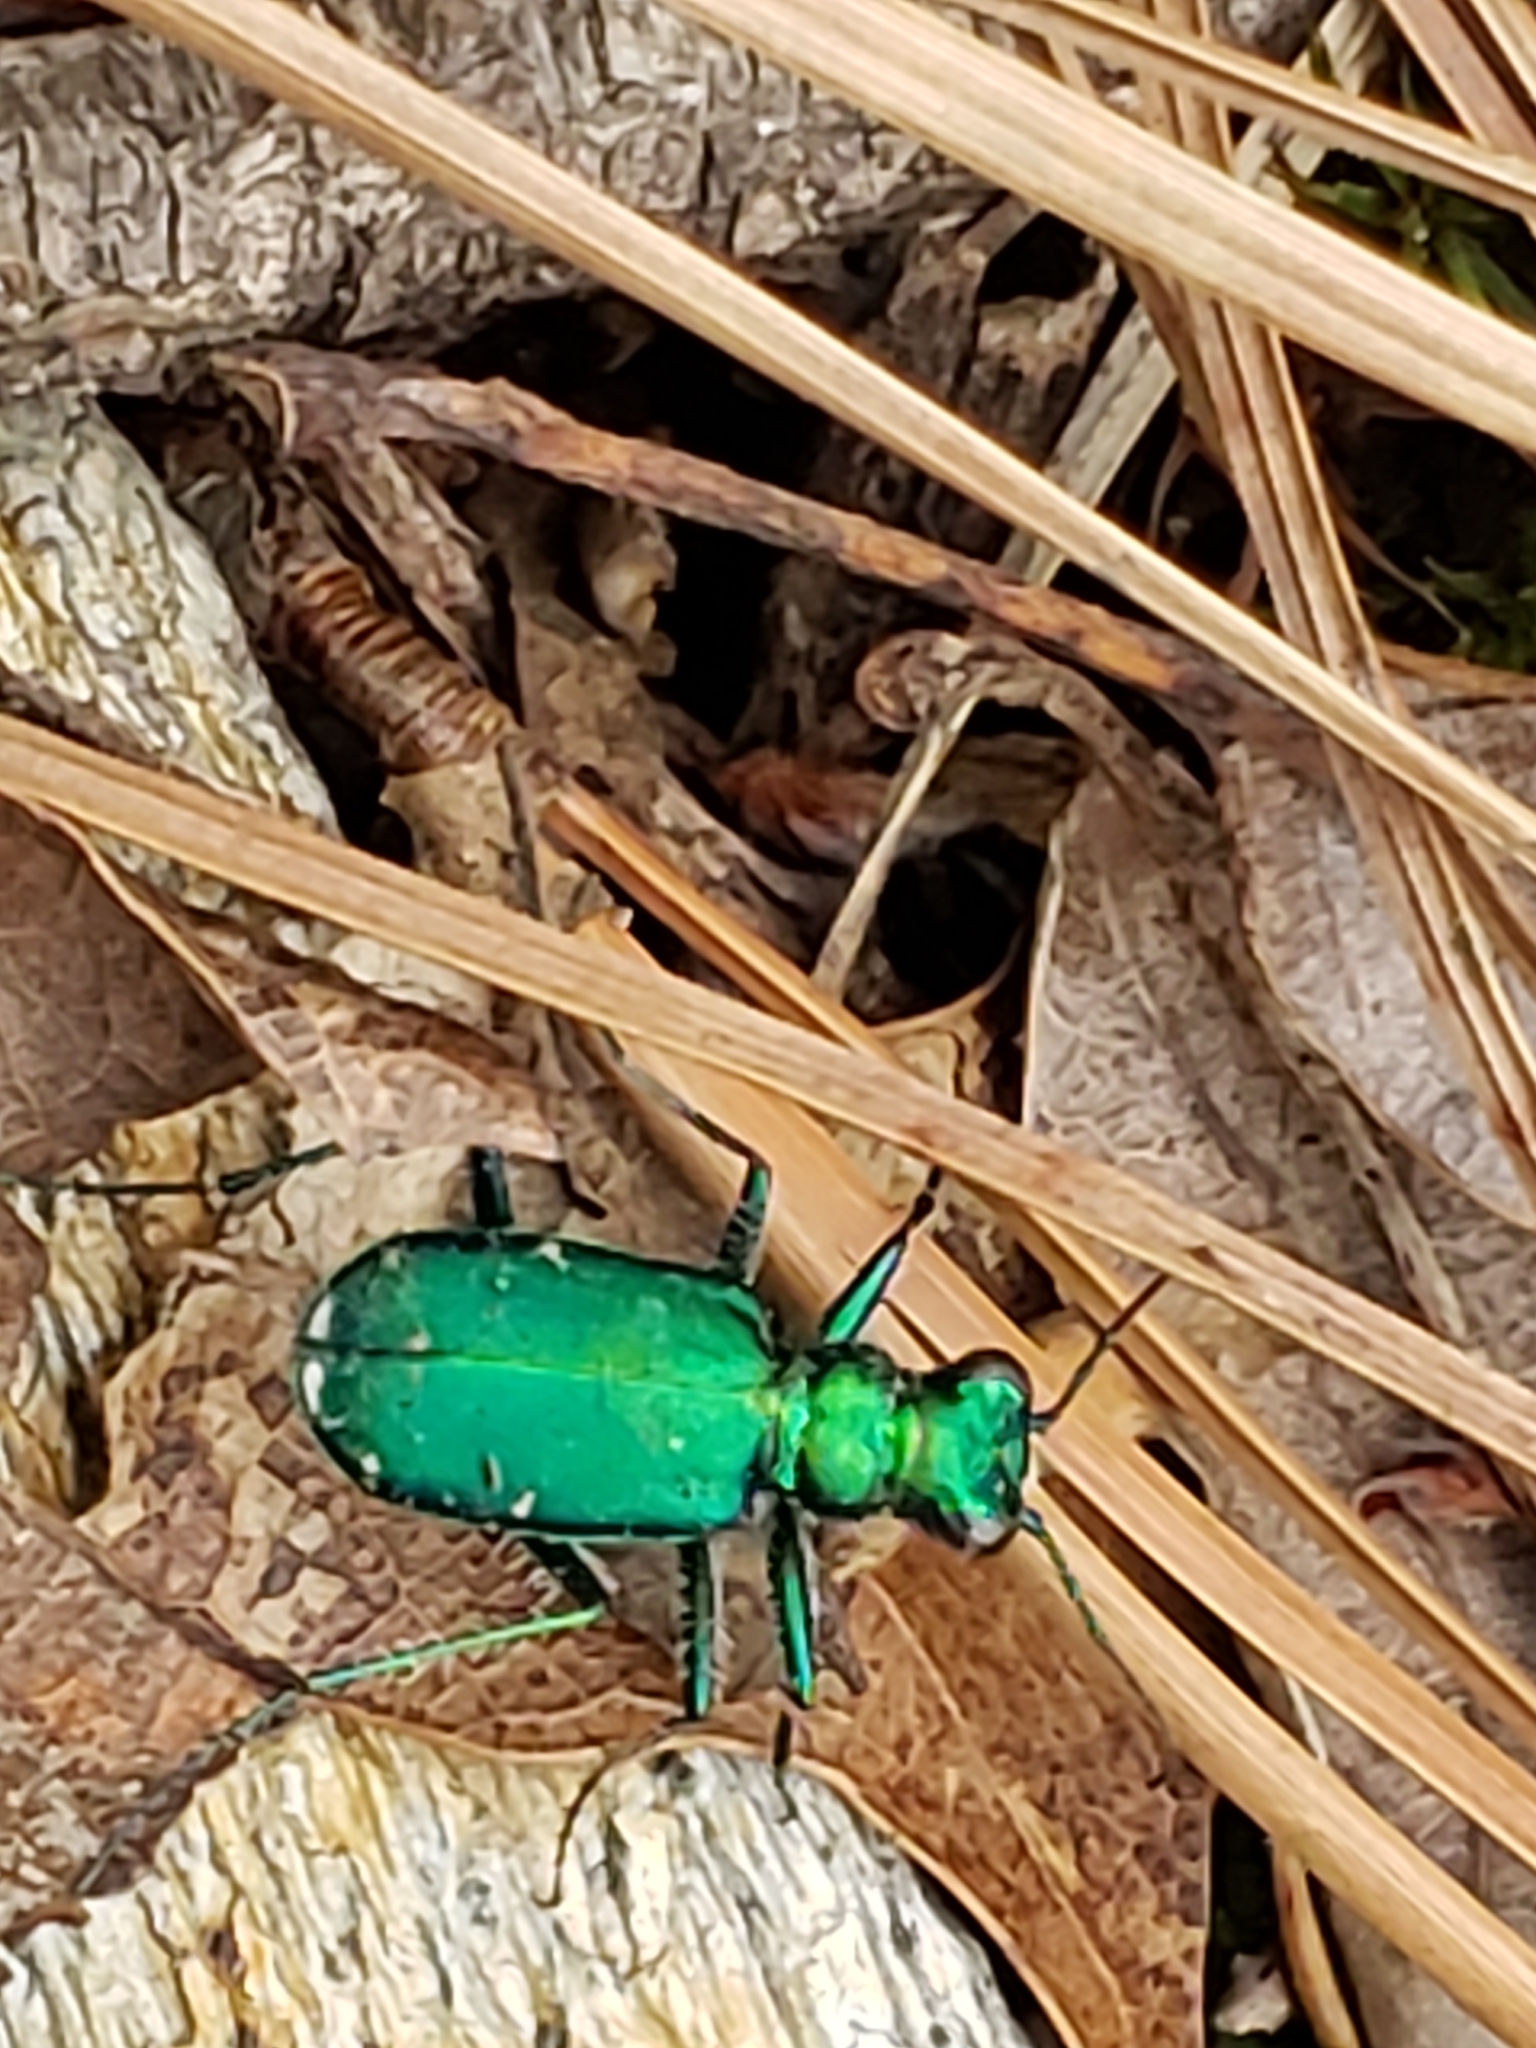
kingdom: Animalia
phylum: Arthropoda
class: Insecta
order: Coleoptera
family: Carabidae
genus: Cicindela
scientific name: Cicindela sexguttata
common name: Six-spotted tiger beetle
